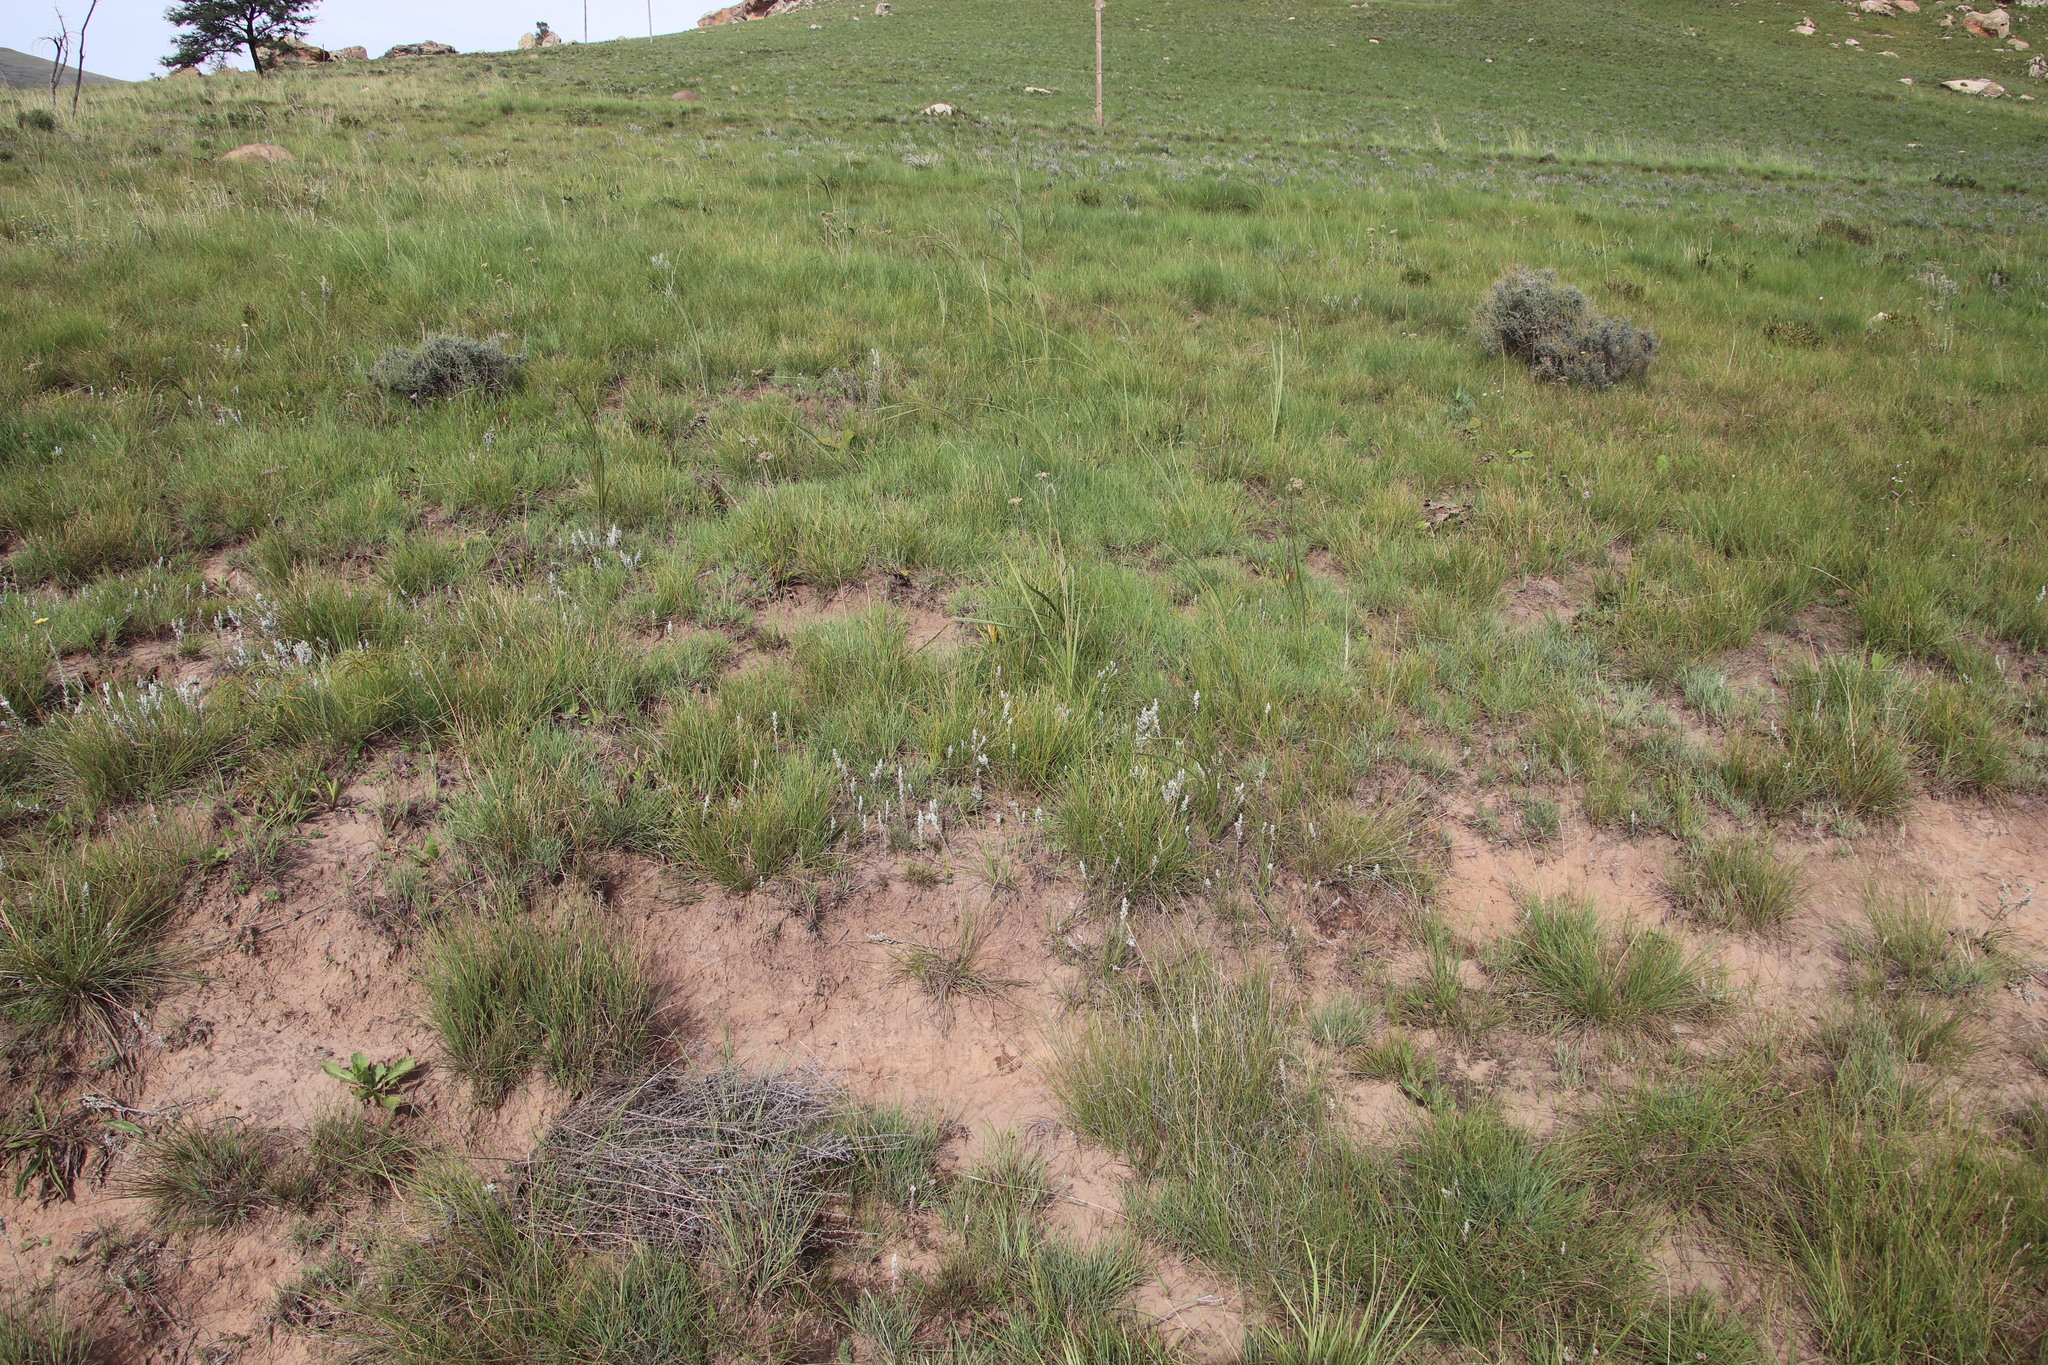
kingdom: Plantae
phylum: Tracheophyta
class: Magnoliopsida
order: Asterales
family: Asteraceae
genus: Helichrysum
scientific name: Helichrysum rugulosum
